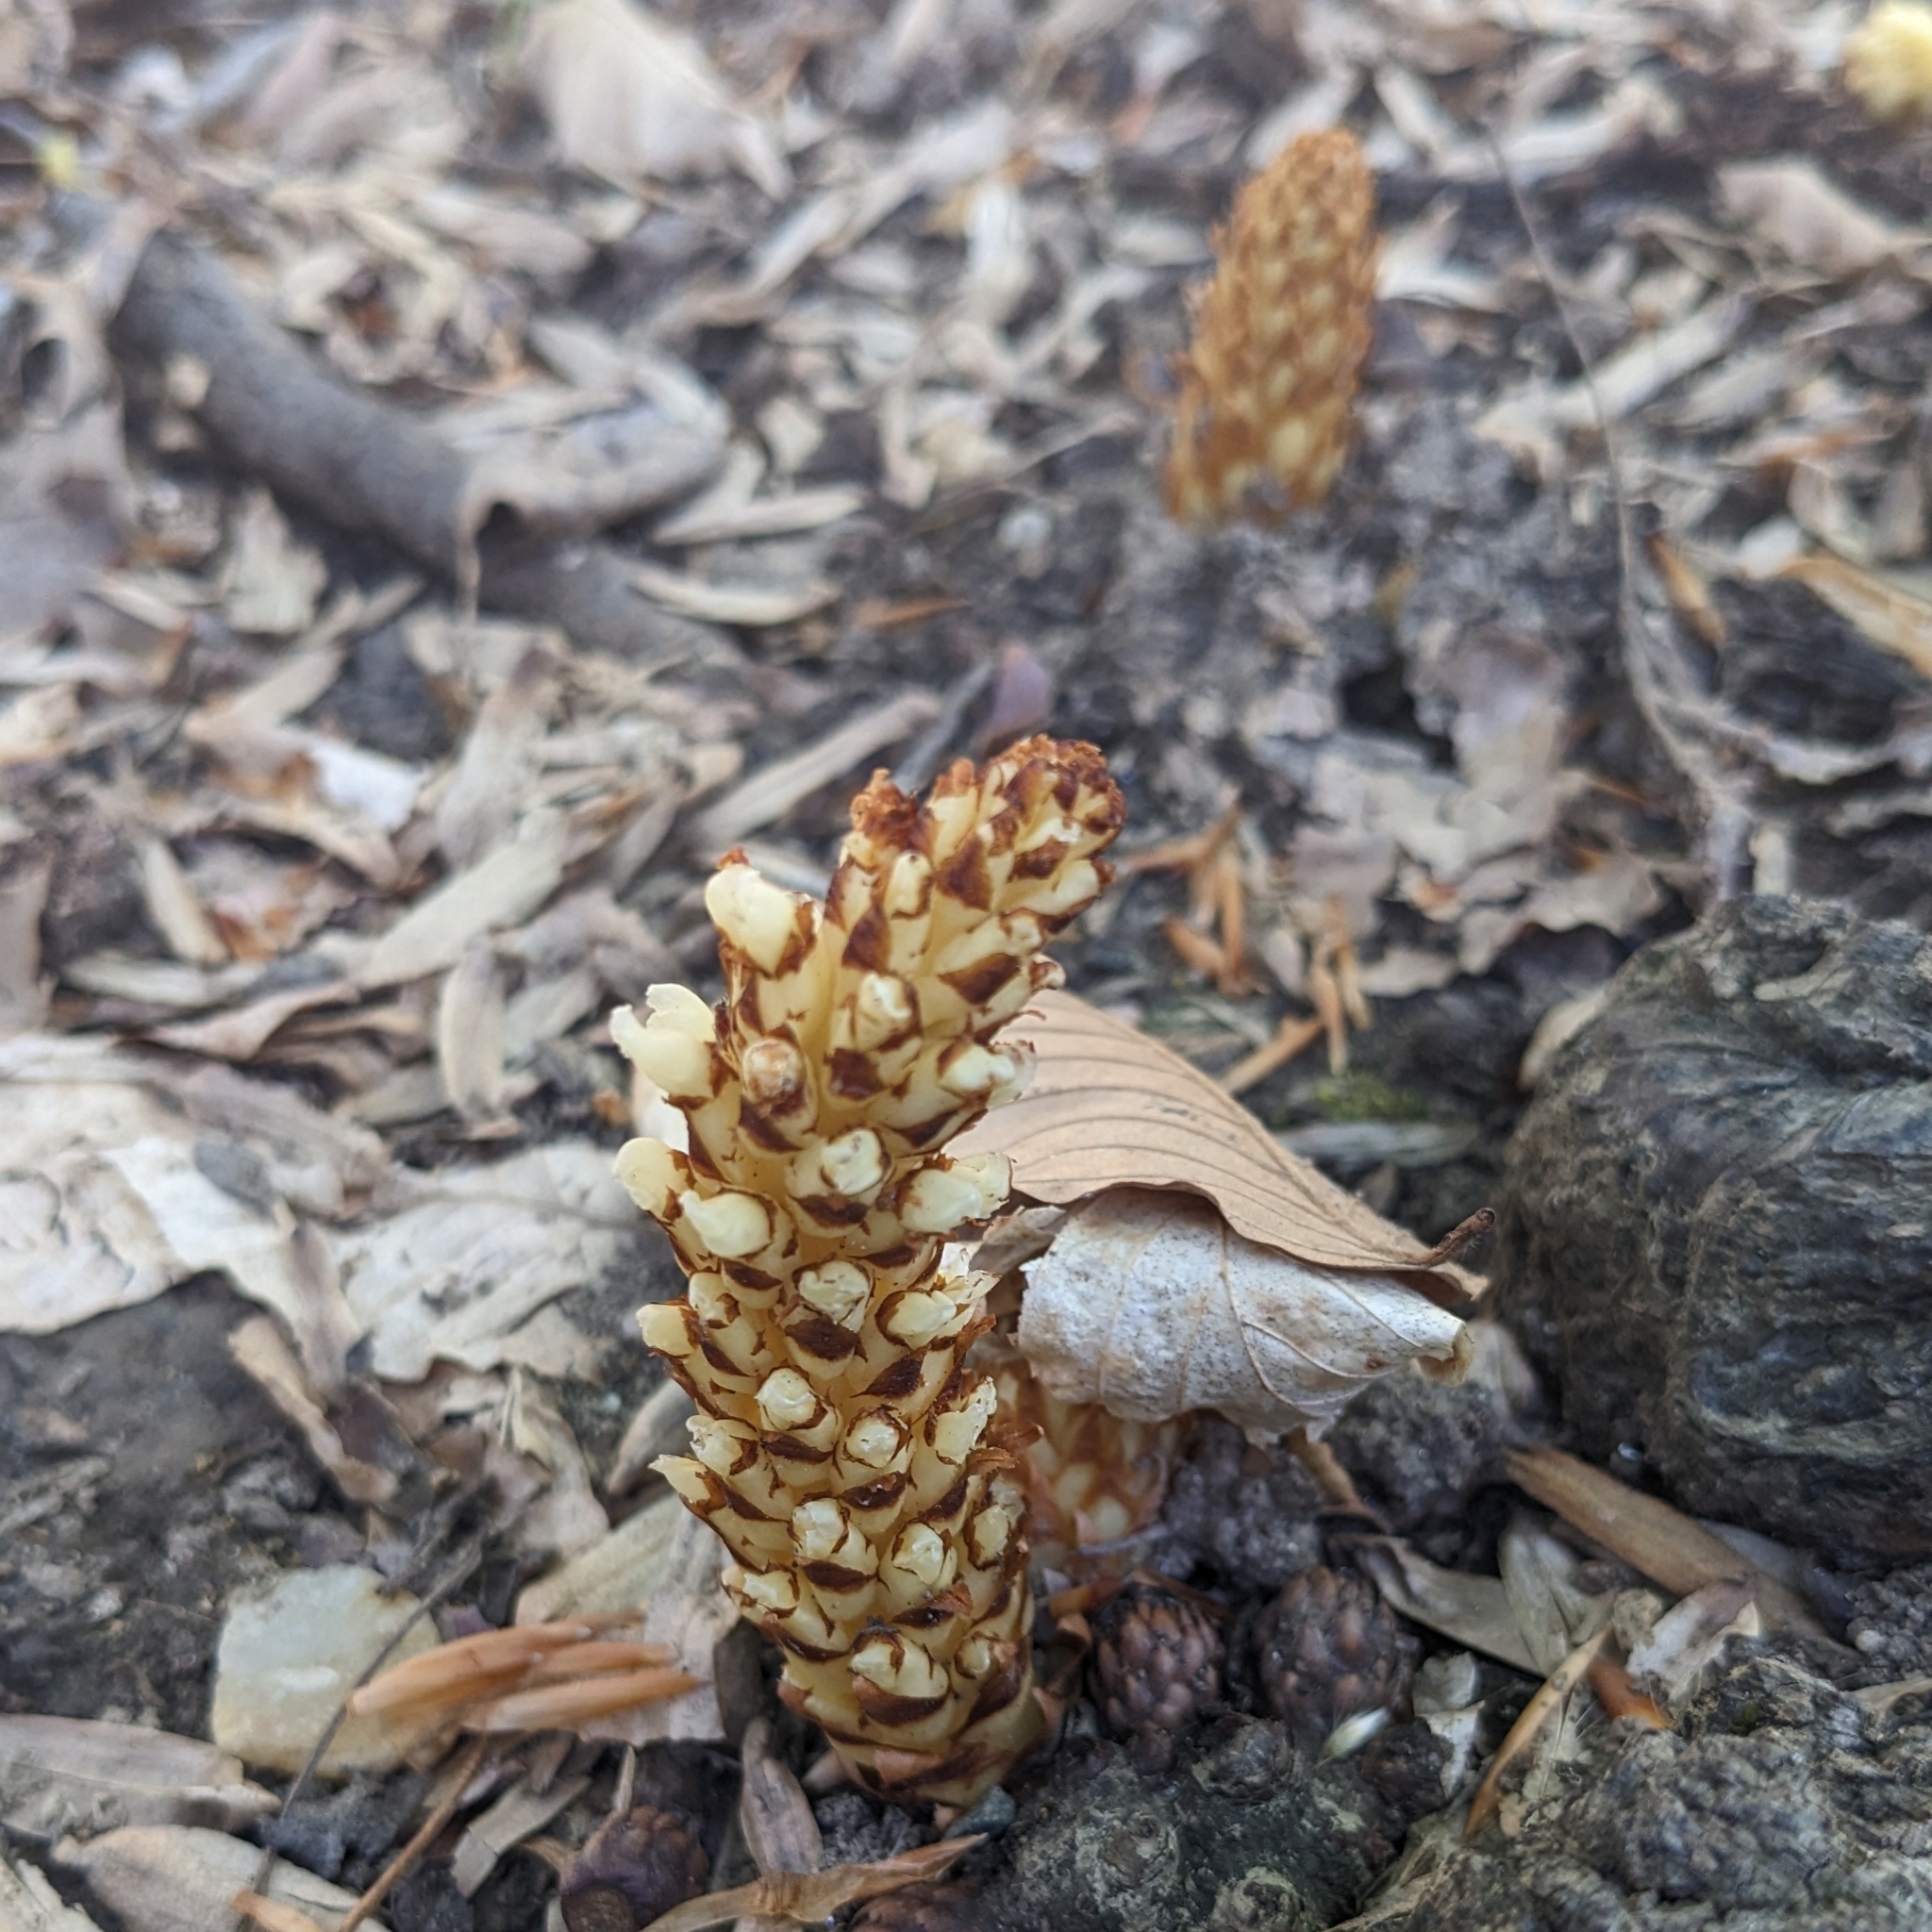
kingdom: Plantae
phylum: Tracheophyta
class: Magnoliopsida
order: Lamiales
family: Orobanchaceae
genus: Conopholis
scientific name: Conopholis americana
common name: American cancer-root
